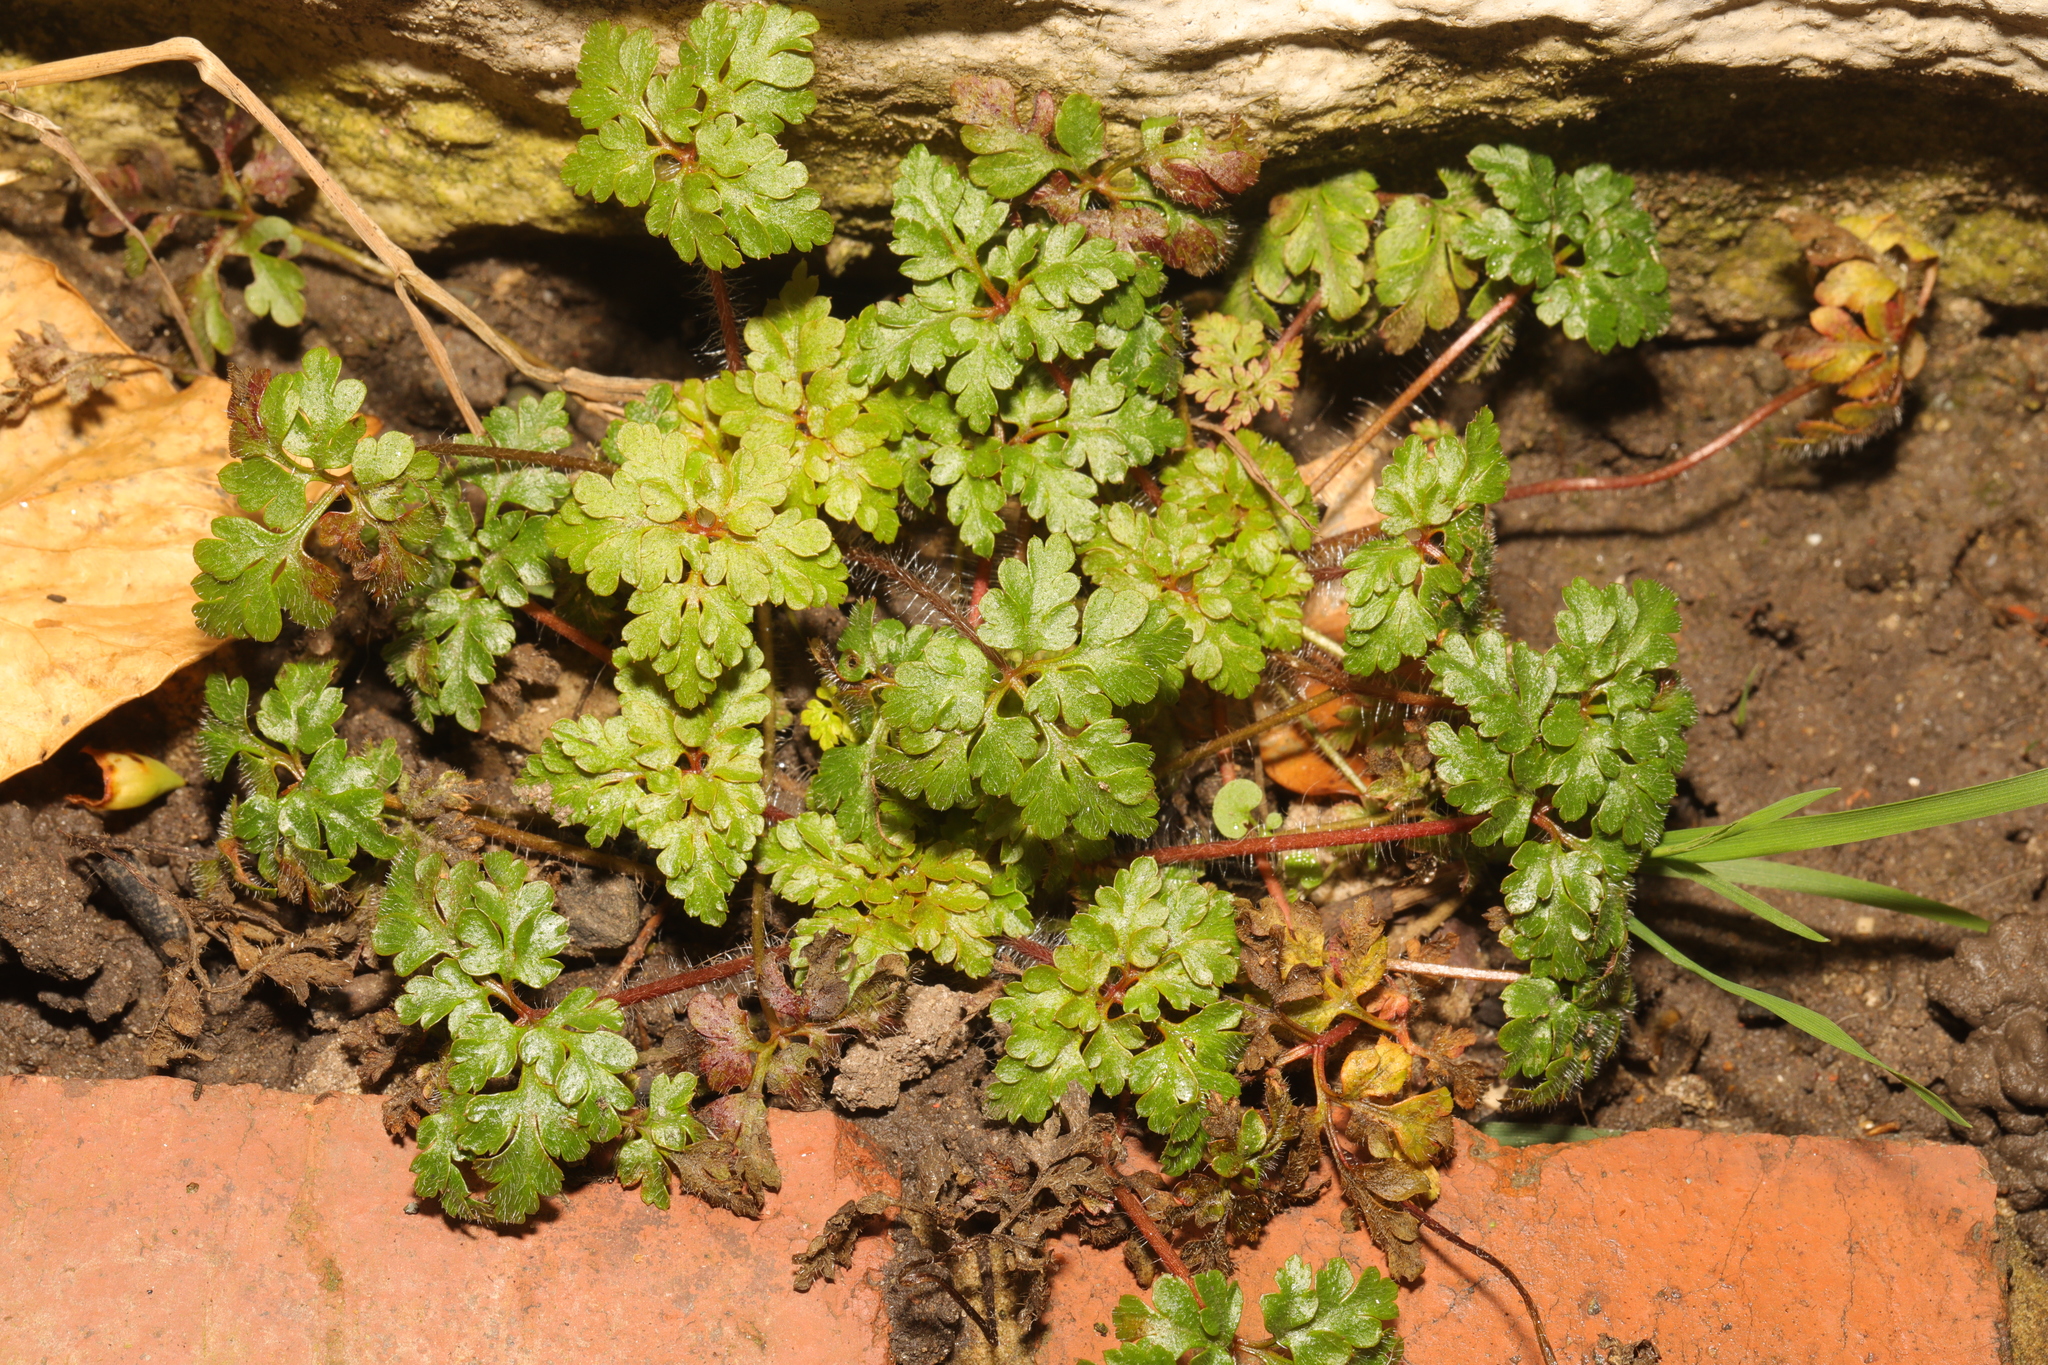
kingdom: Plantae
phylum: Tracheophyta
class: Magnoliopsida
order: Geraniales
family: Geraniaceae
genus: Geranium
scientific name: Geranium robertianum
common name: Herb-robert
